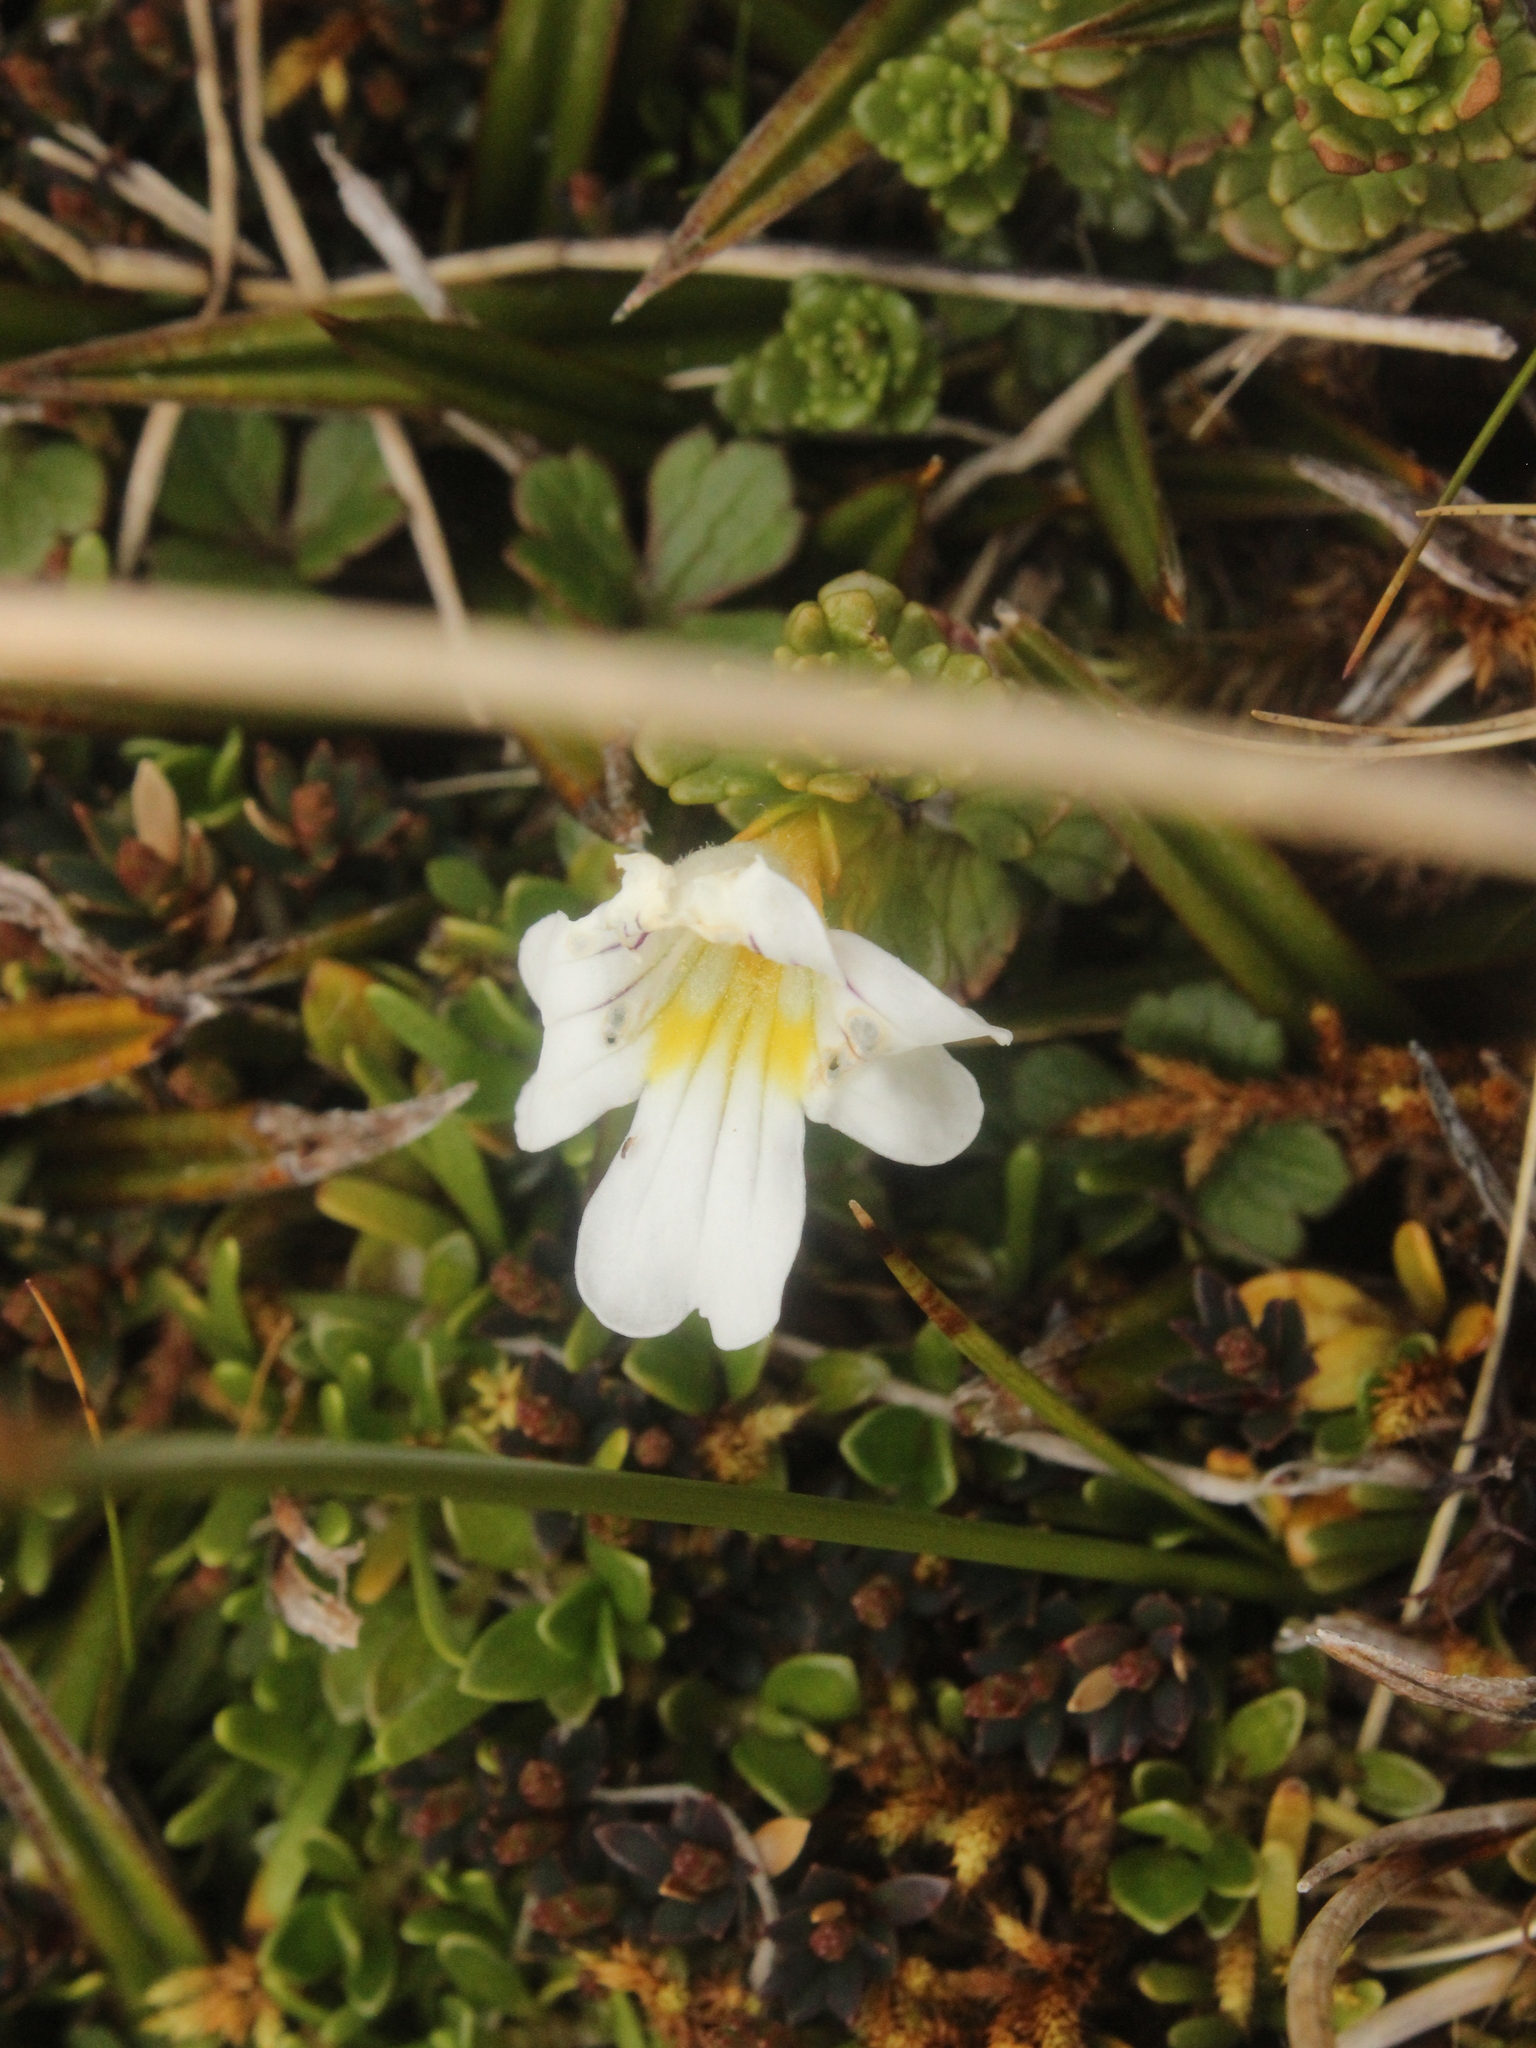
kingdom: Plantae
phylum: Tracheophyta
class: Magnoliopsida
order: Lamiales
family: Orobanchaceae
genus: Euphrasia
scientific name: Euphrasia drucei
